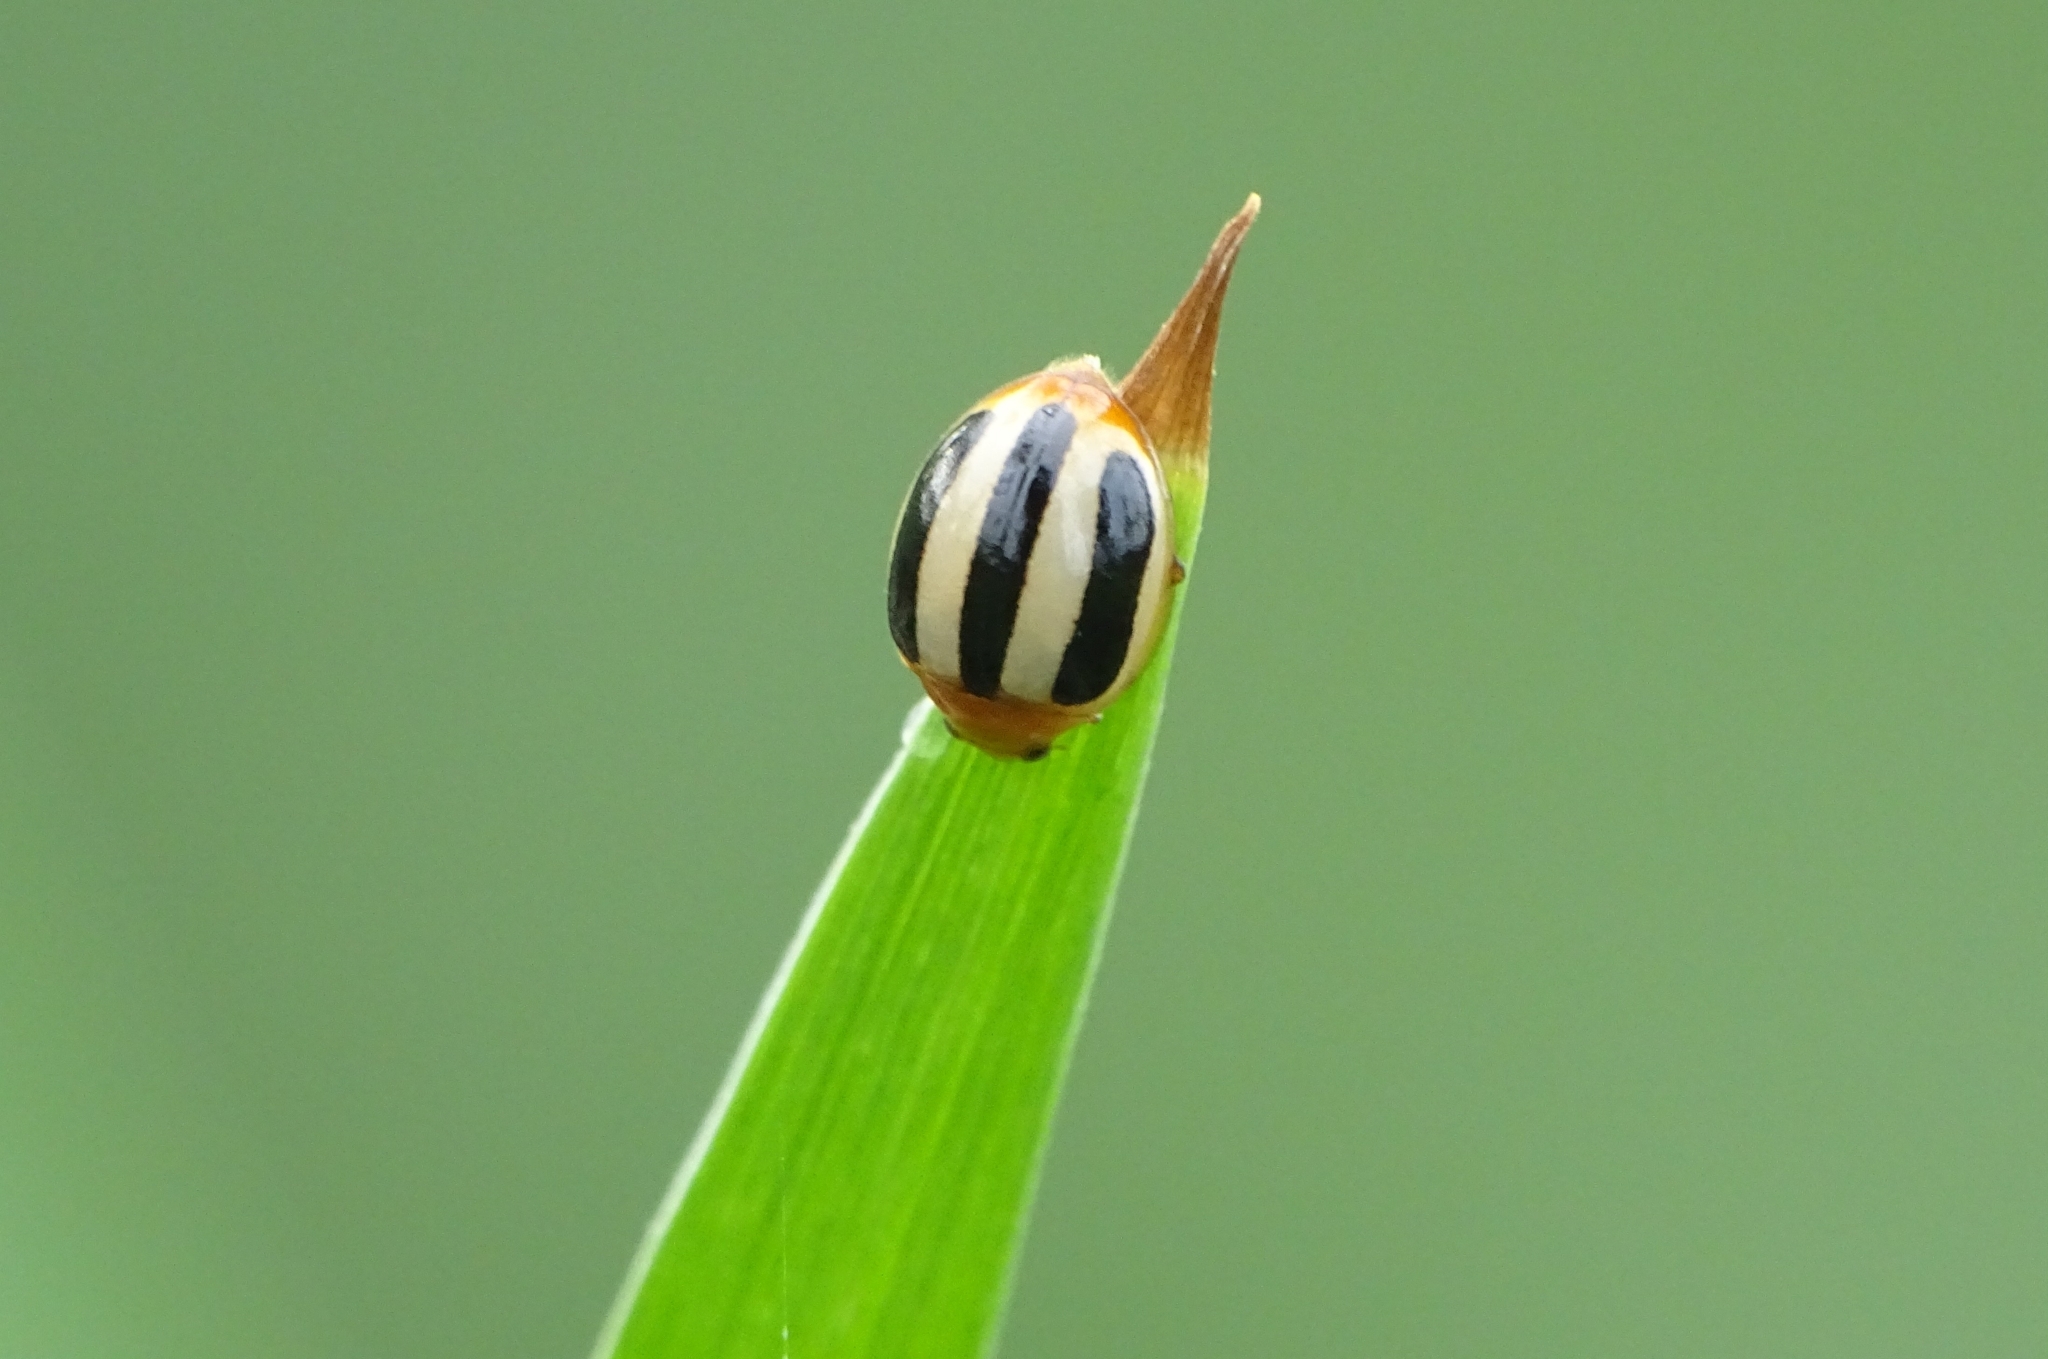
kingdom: Animalia
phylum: Arthropoda
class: Insecta
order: Coleoptera
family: Coccinellidae
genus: Brumoides
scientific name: Brumoides suturalis
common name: Threestriped lady beetle
